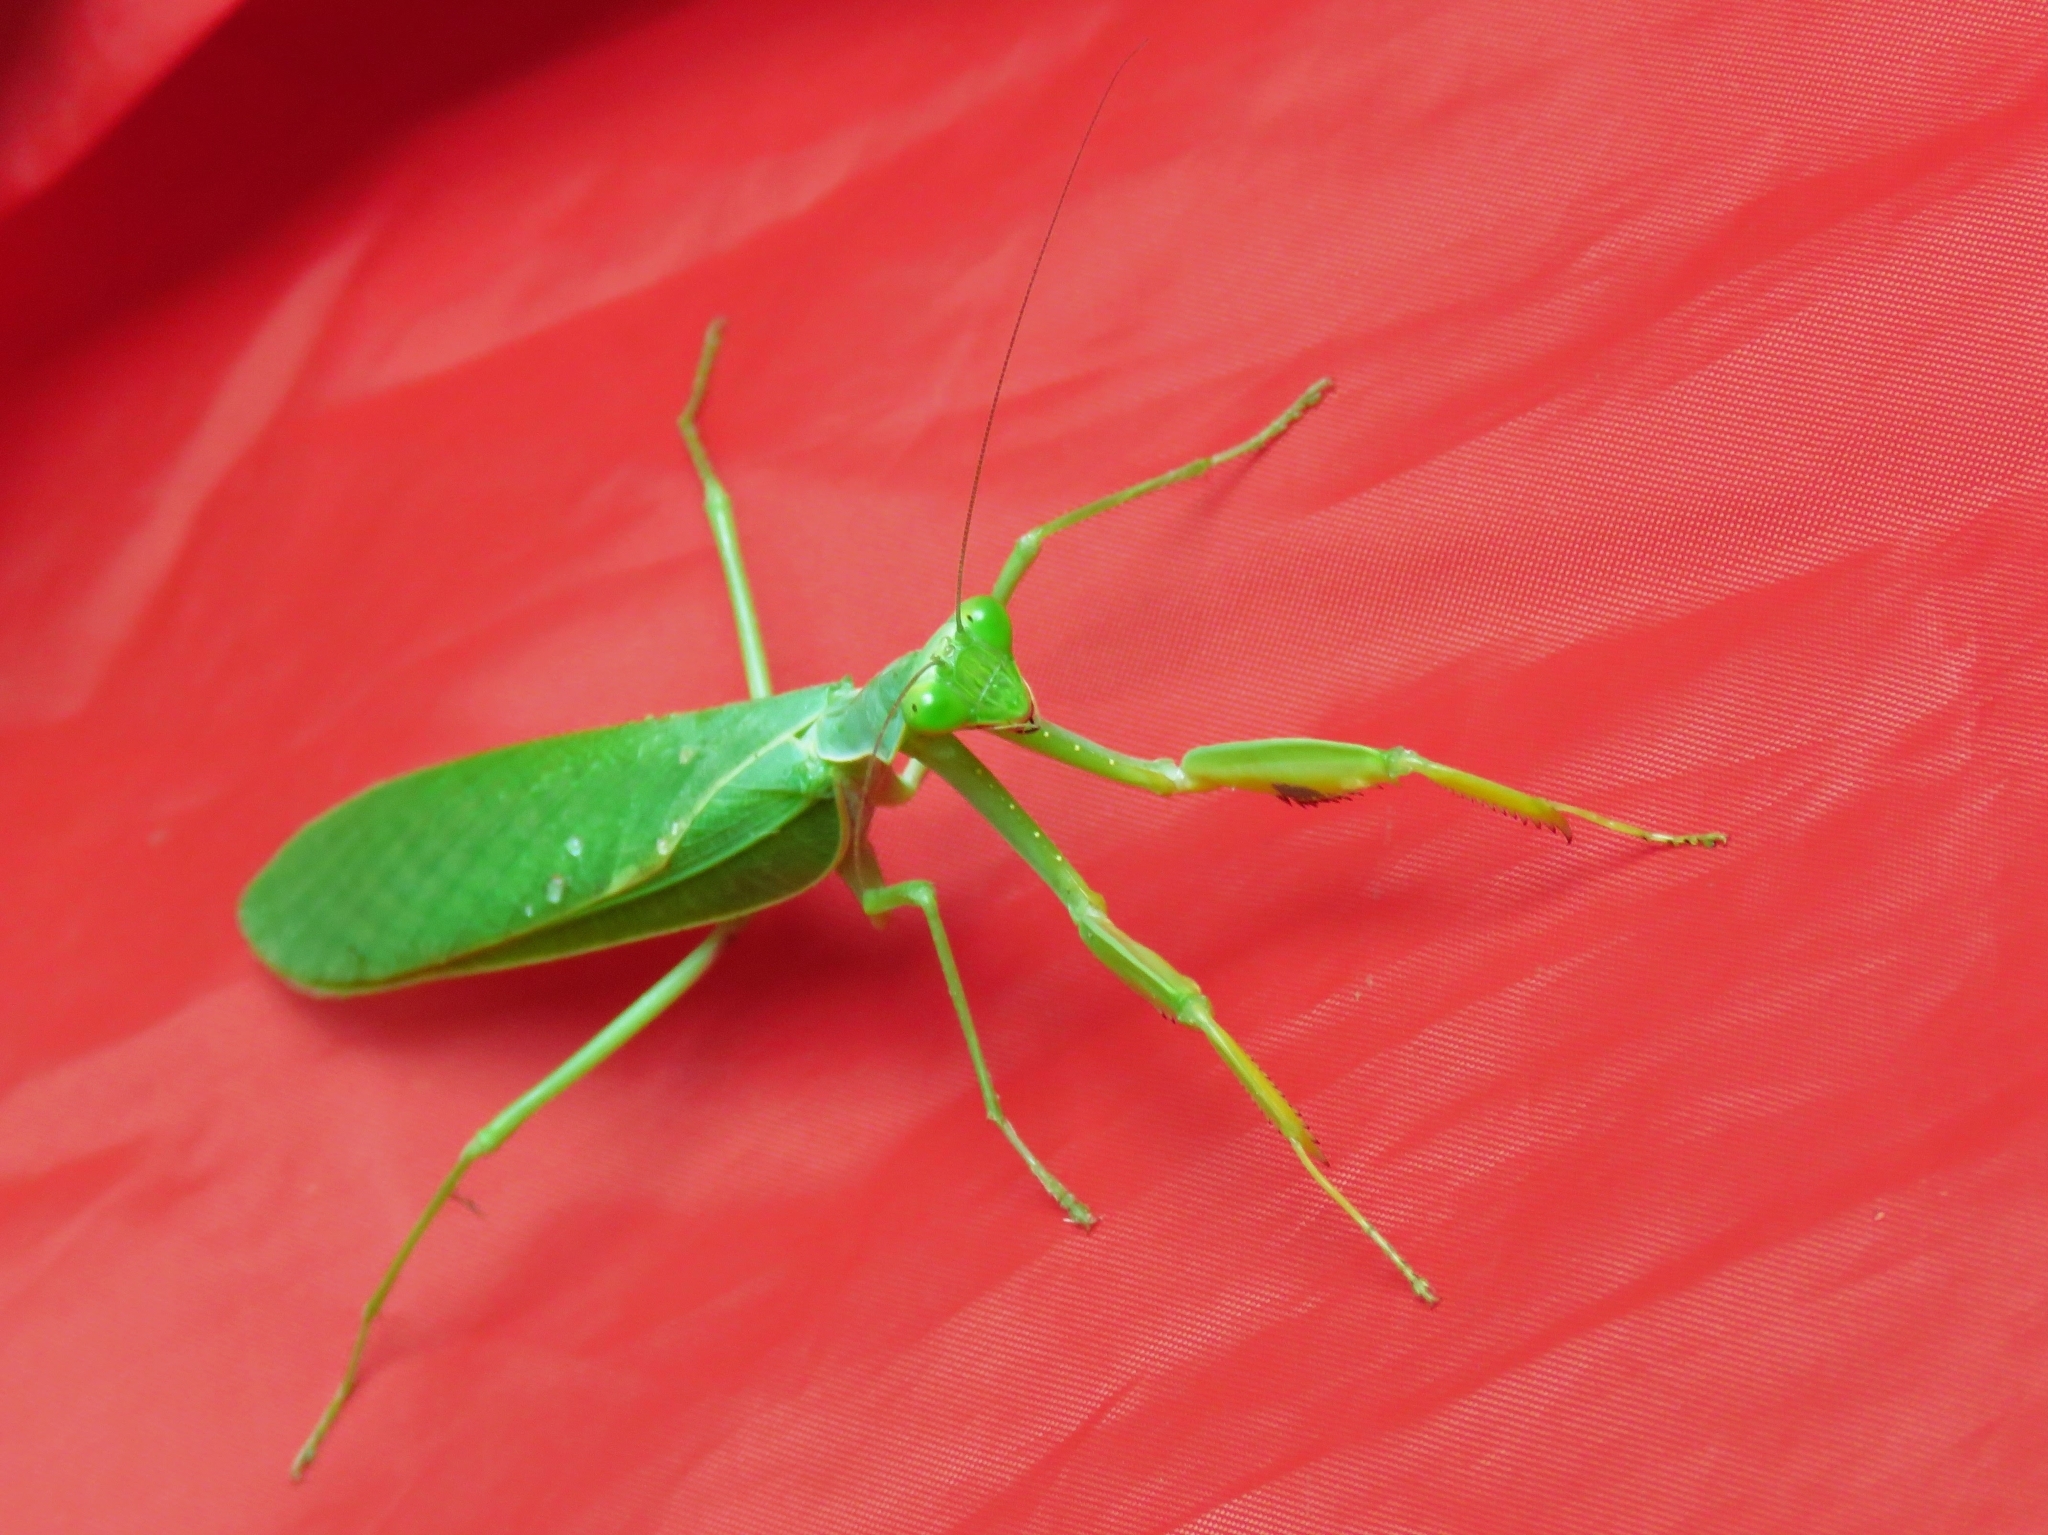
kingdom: Animalia
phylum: Arthropoda
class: Insecta
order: Mantodea
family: Mantidae
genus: Sphodromantis
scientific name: Sphodromantis lineola
